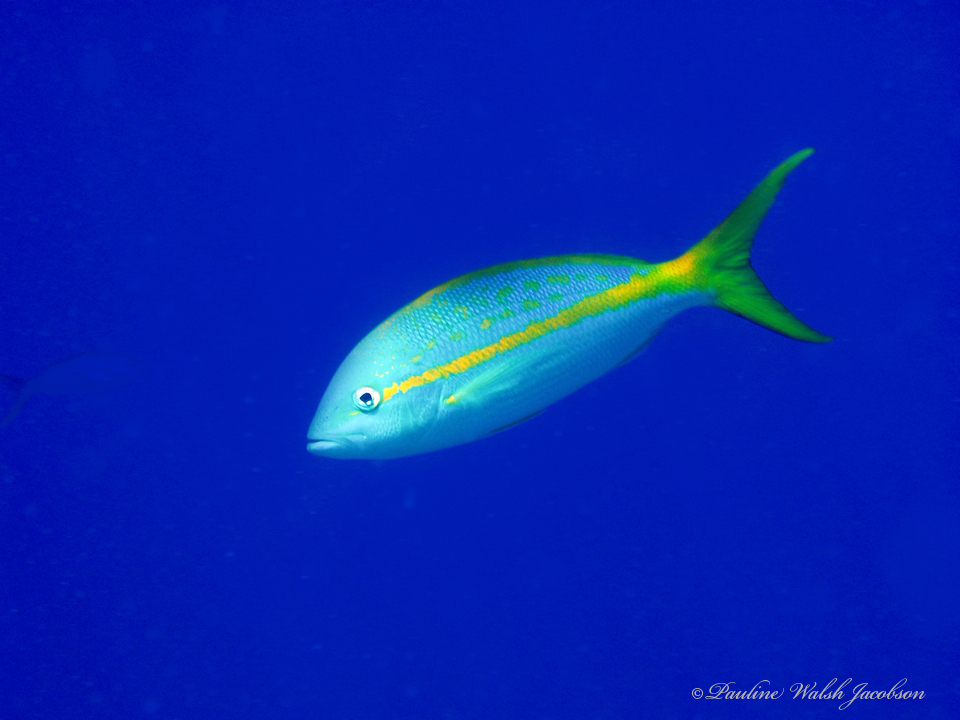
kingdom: Animalia
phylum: Chordata
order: Perciformes
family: Lutjanidae
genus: Ocyurus
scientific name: Ocyurus chrysurus
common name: Yellowtail snapper
